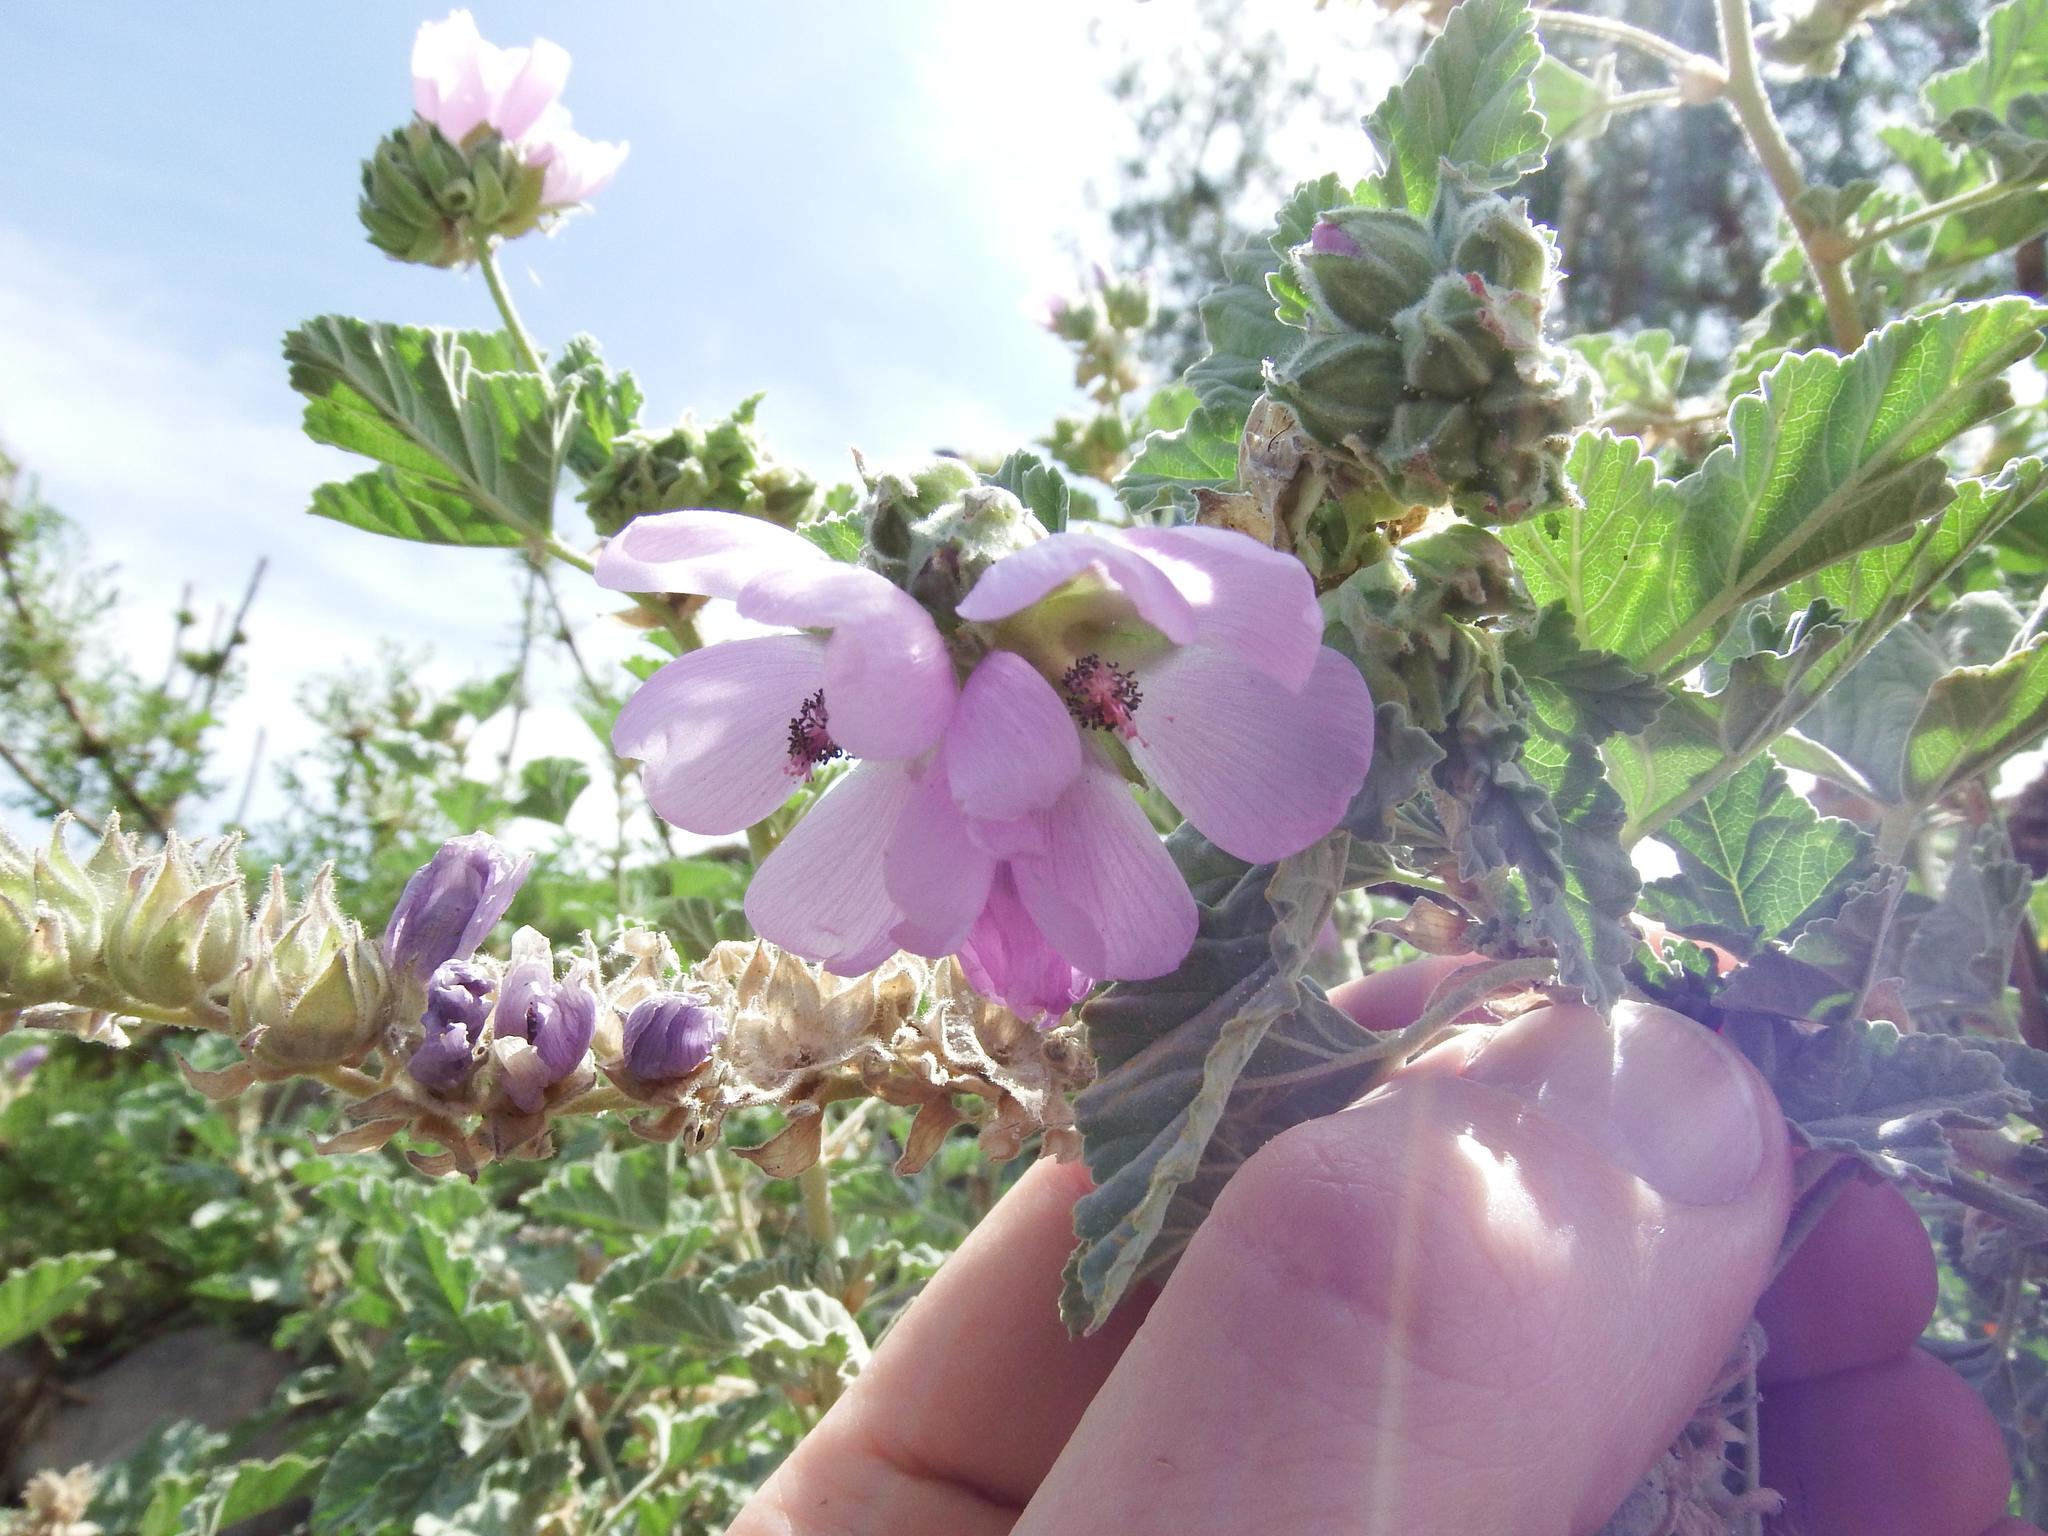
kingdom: Plantae
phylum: Tracheophyta
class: Magnoliopsida
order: Malvales
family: Malvaceae
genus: Tarasa
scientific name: Tarasa capitata
